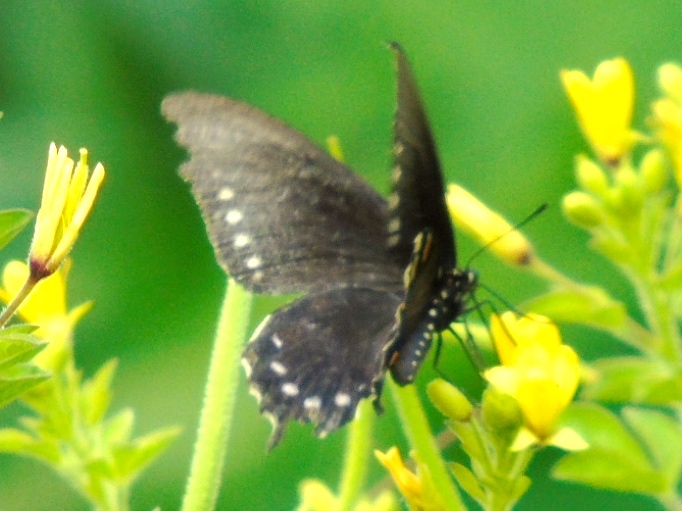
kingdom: Animalia
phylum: Arthropoda
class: Insecta
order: Lepidoptera
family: Papilionidae
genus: Battus
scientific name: Battus philenor
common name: Pipevine swallowtail
